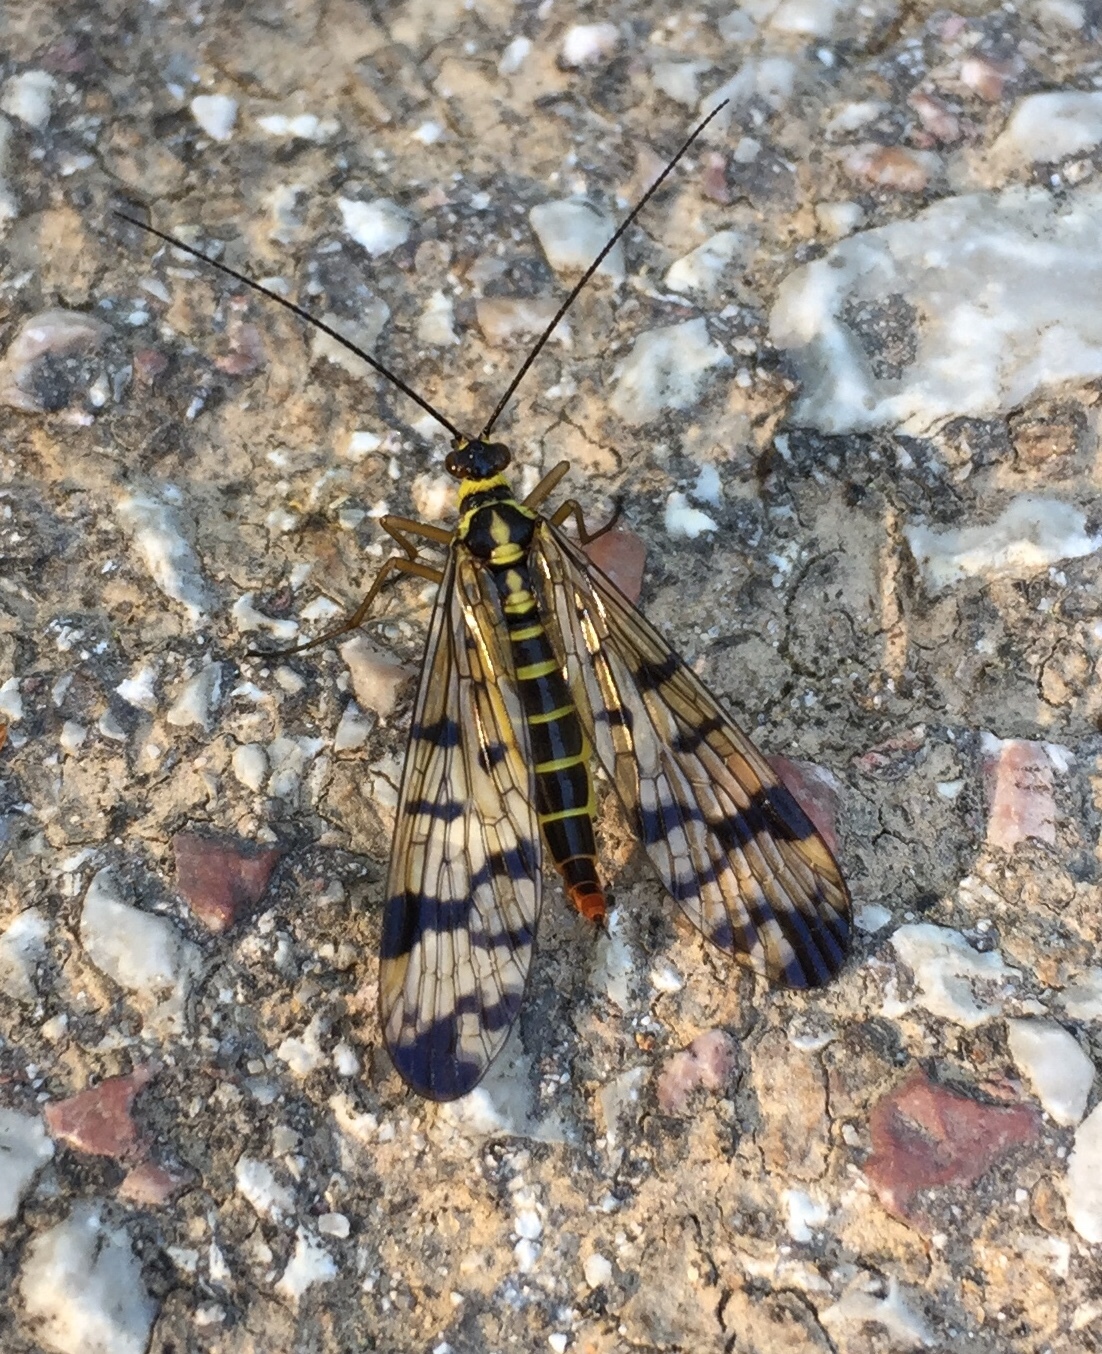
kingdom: Animalia
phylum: Arthropoda
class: Insecta
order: Mecoptera
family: Panorpidae
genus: Panorpa
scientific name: Panorpa communis
